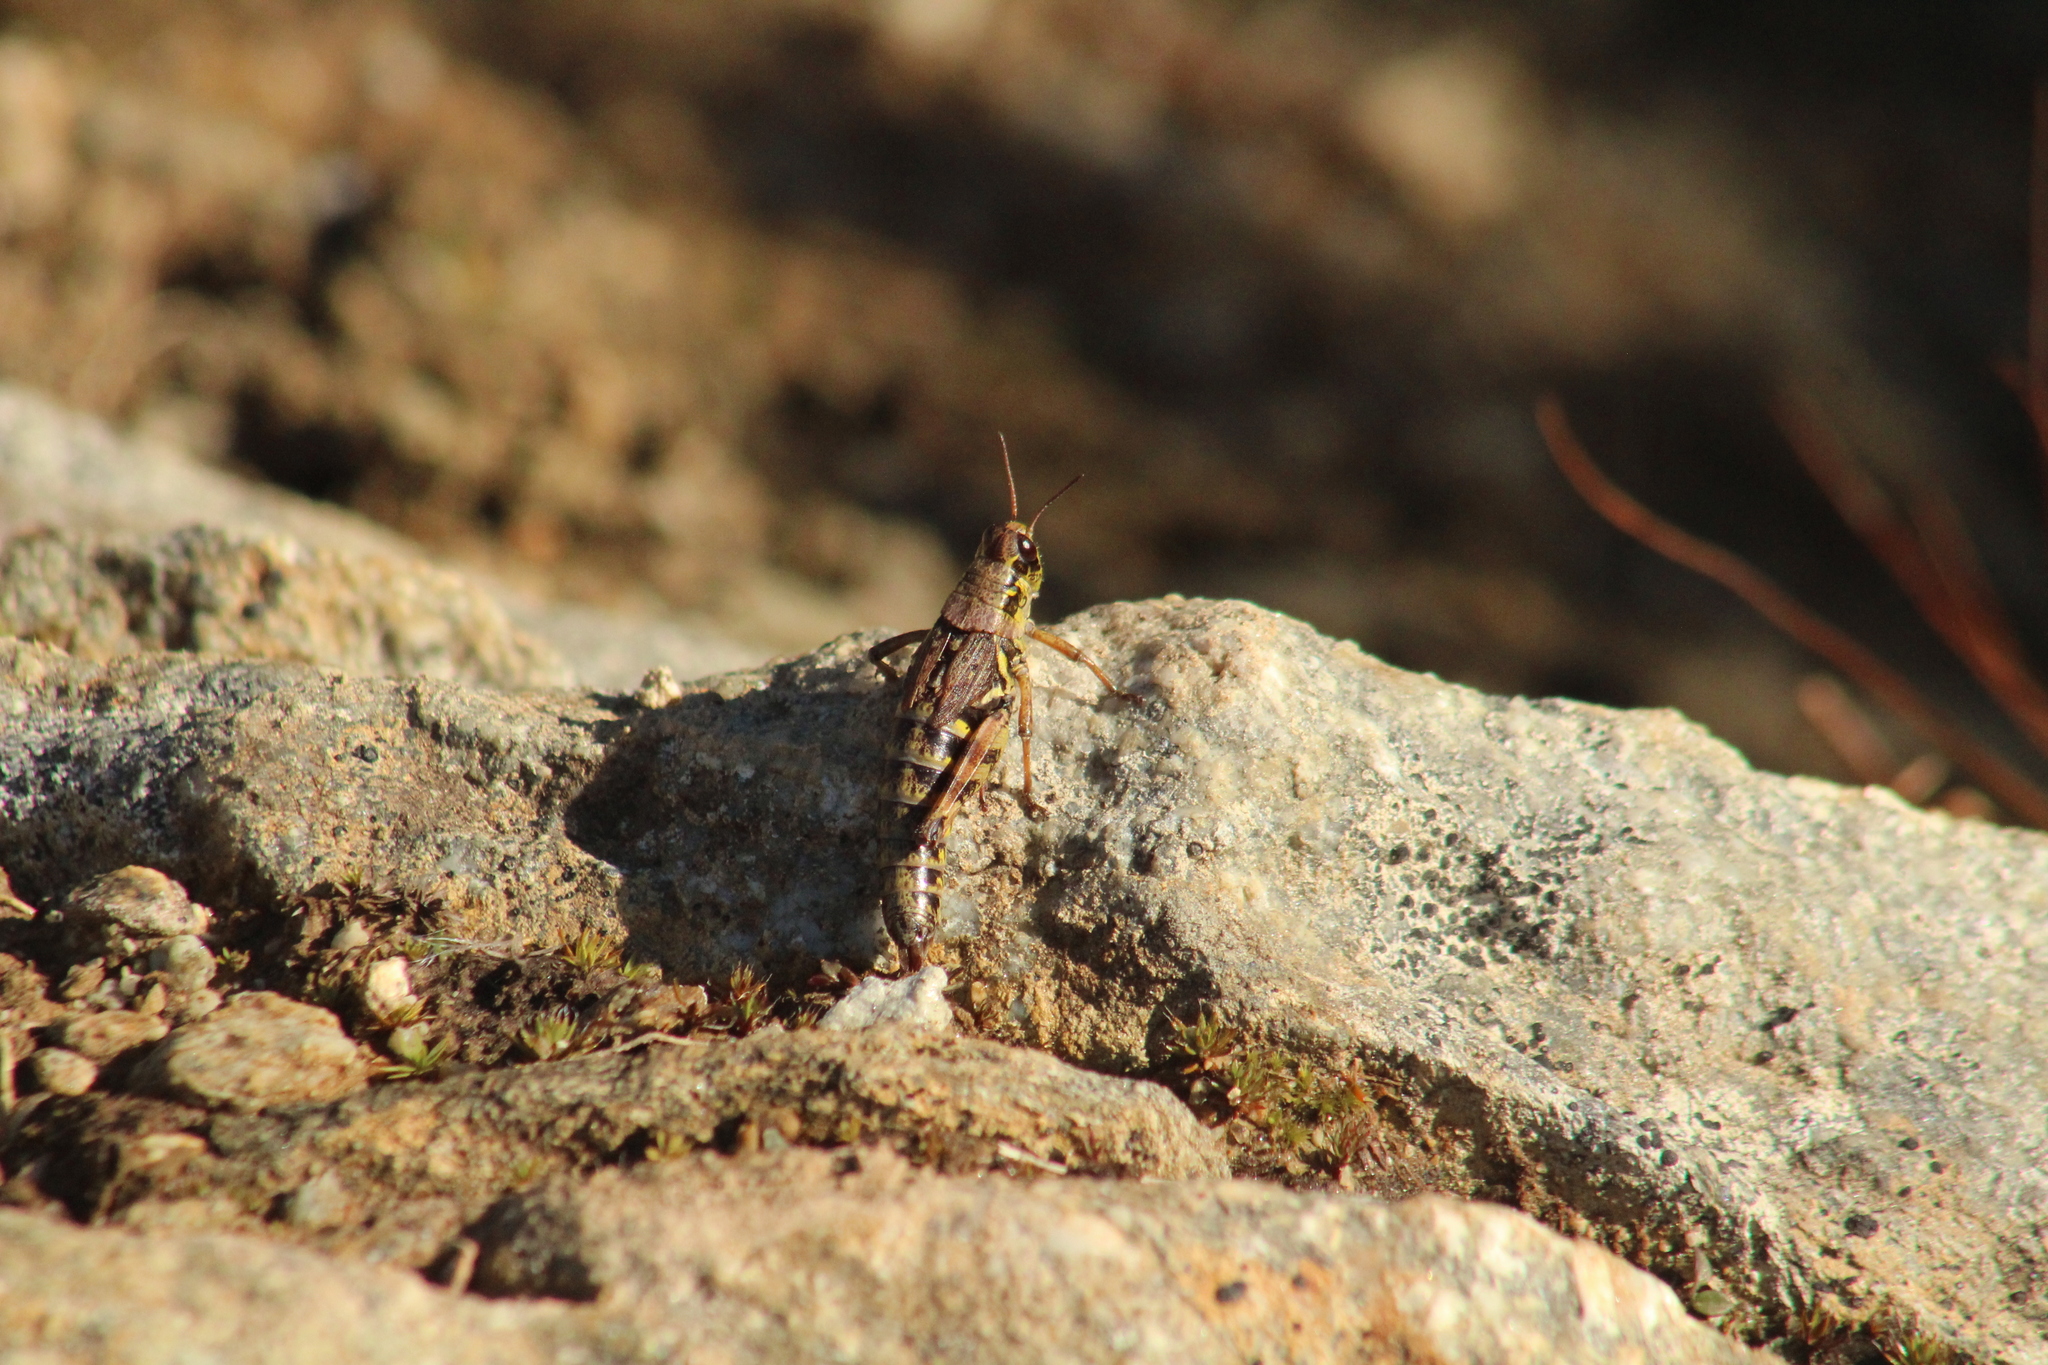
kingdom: Animalia
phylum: Arthropoda
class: Insecta
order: Orthoptera
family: Acrididae
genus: Bohemanella
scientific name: Bohemanella frigida
